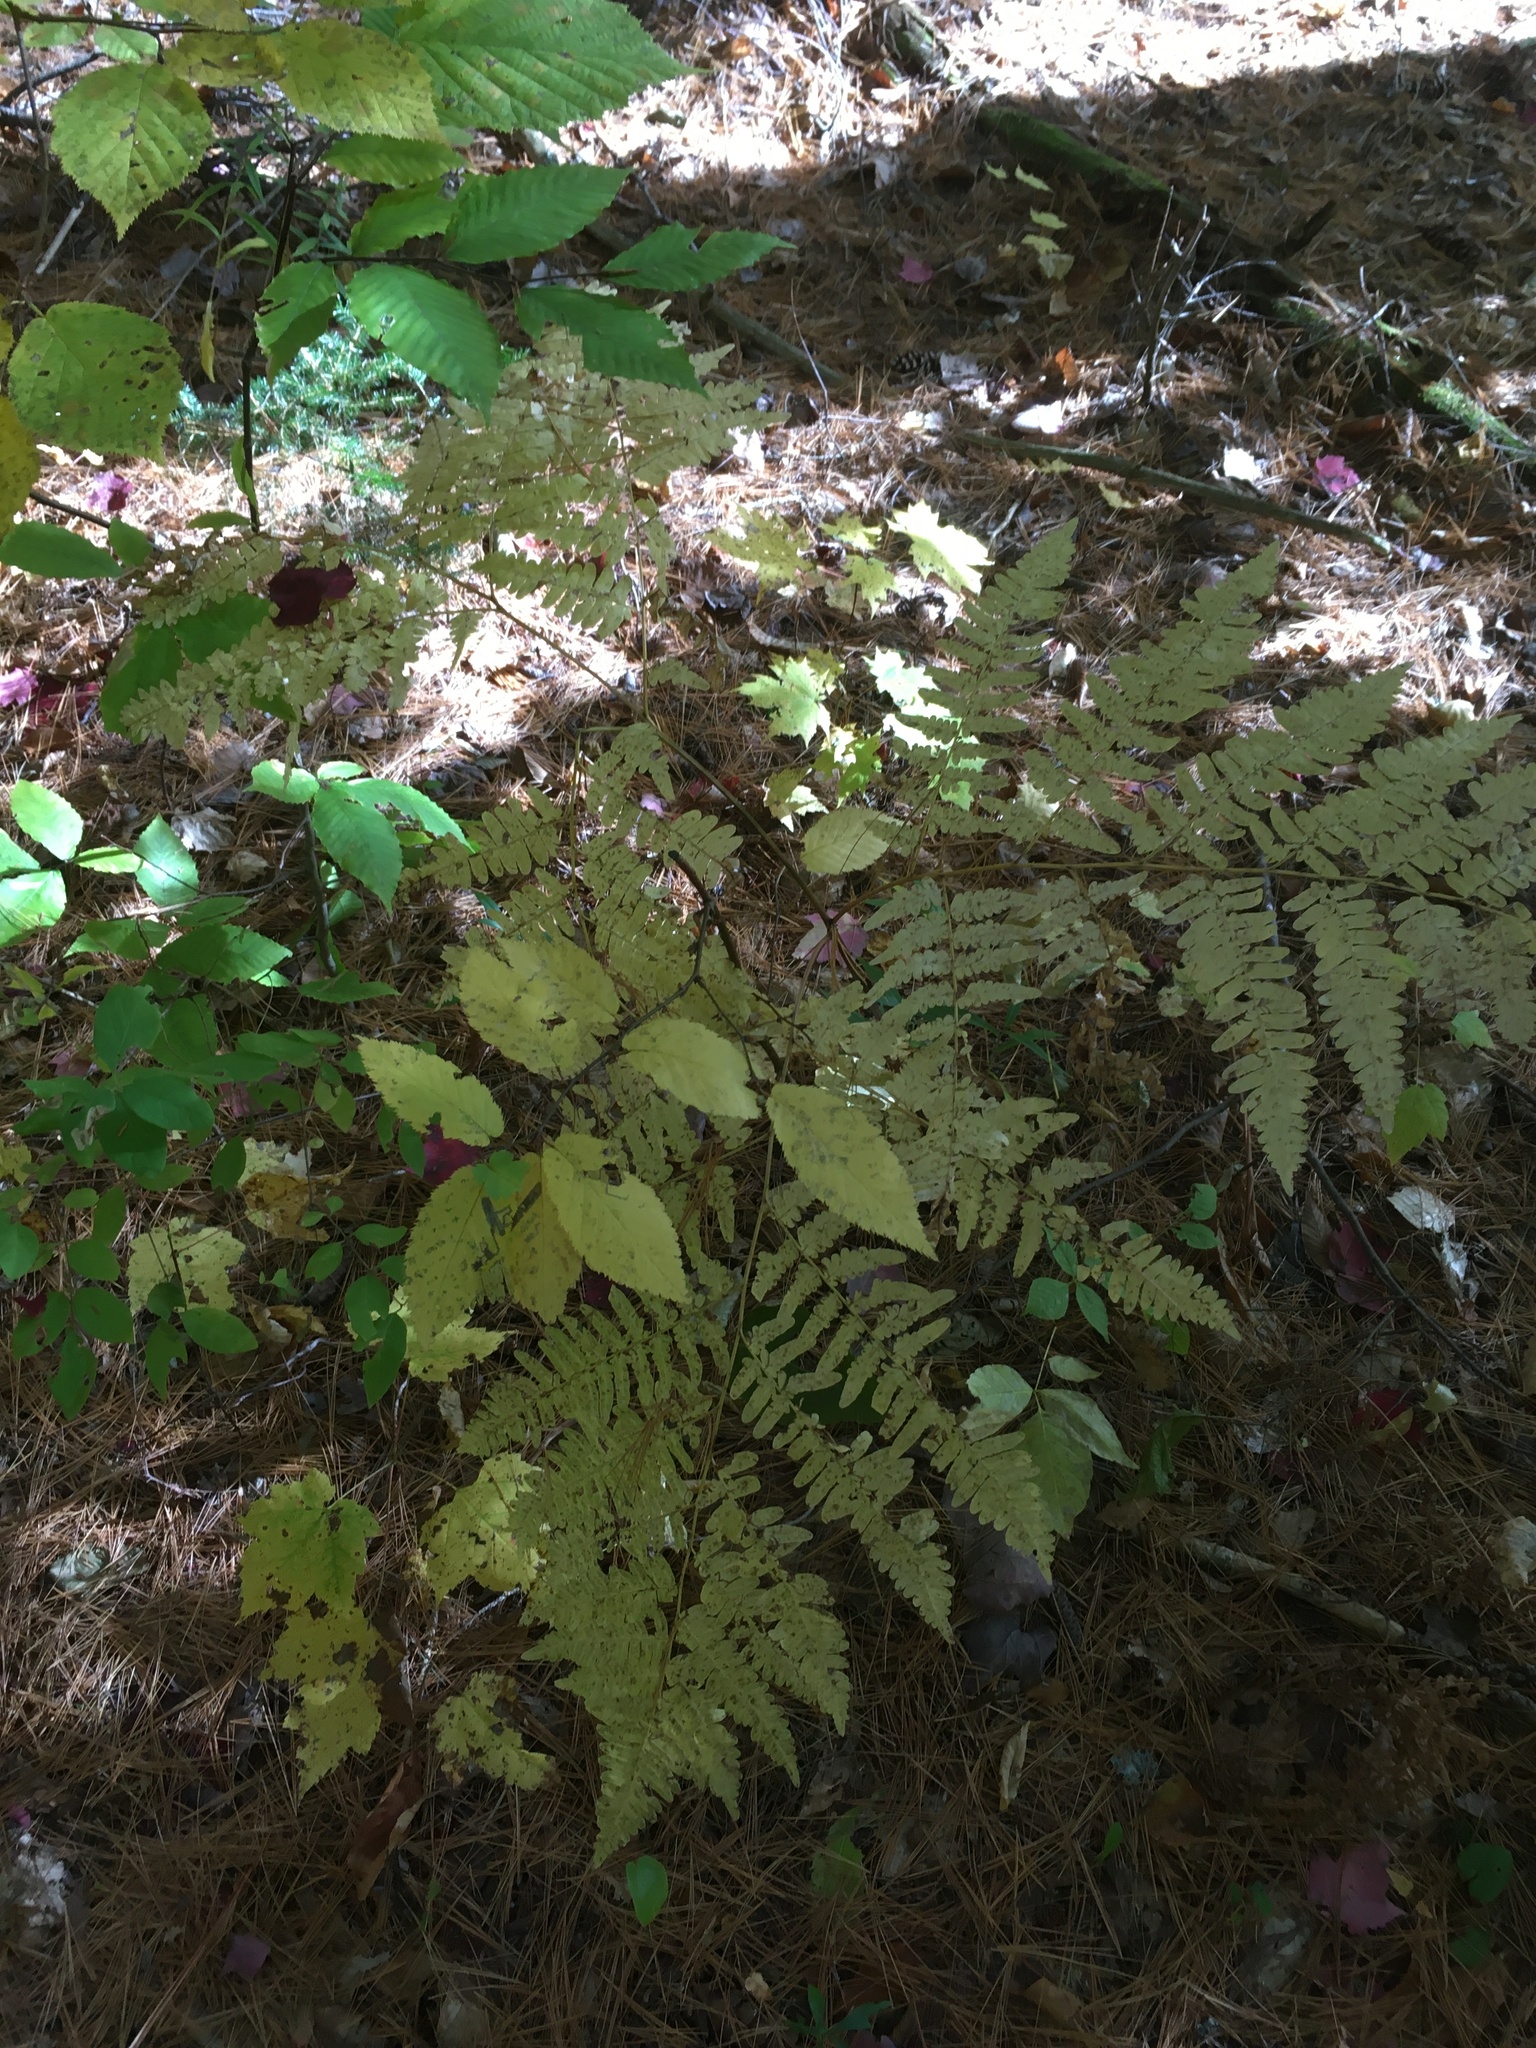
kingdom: Plantae
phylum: Tracheophyta
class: Polypodiopsida
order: Polypodiales
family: Dennstaedtiaceae
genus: Pteridium
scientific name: Pteridium aquilinum
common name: Bracken
